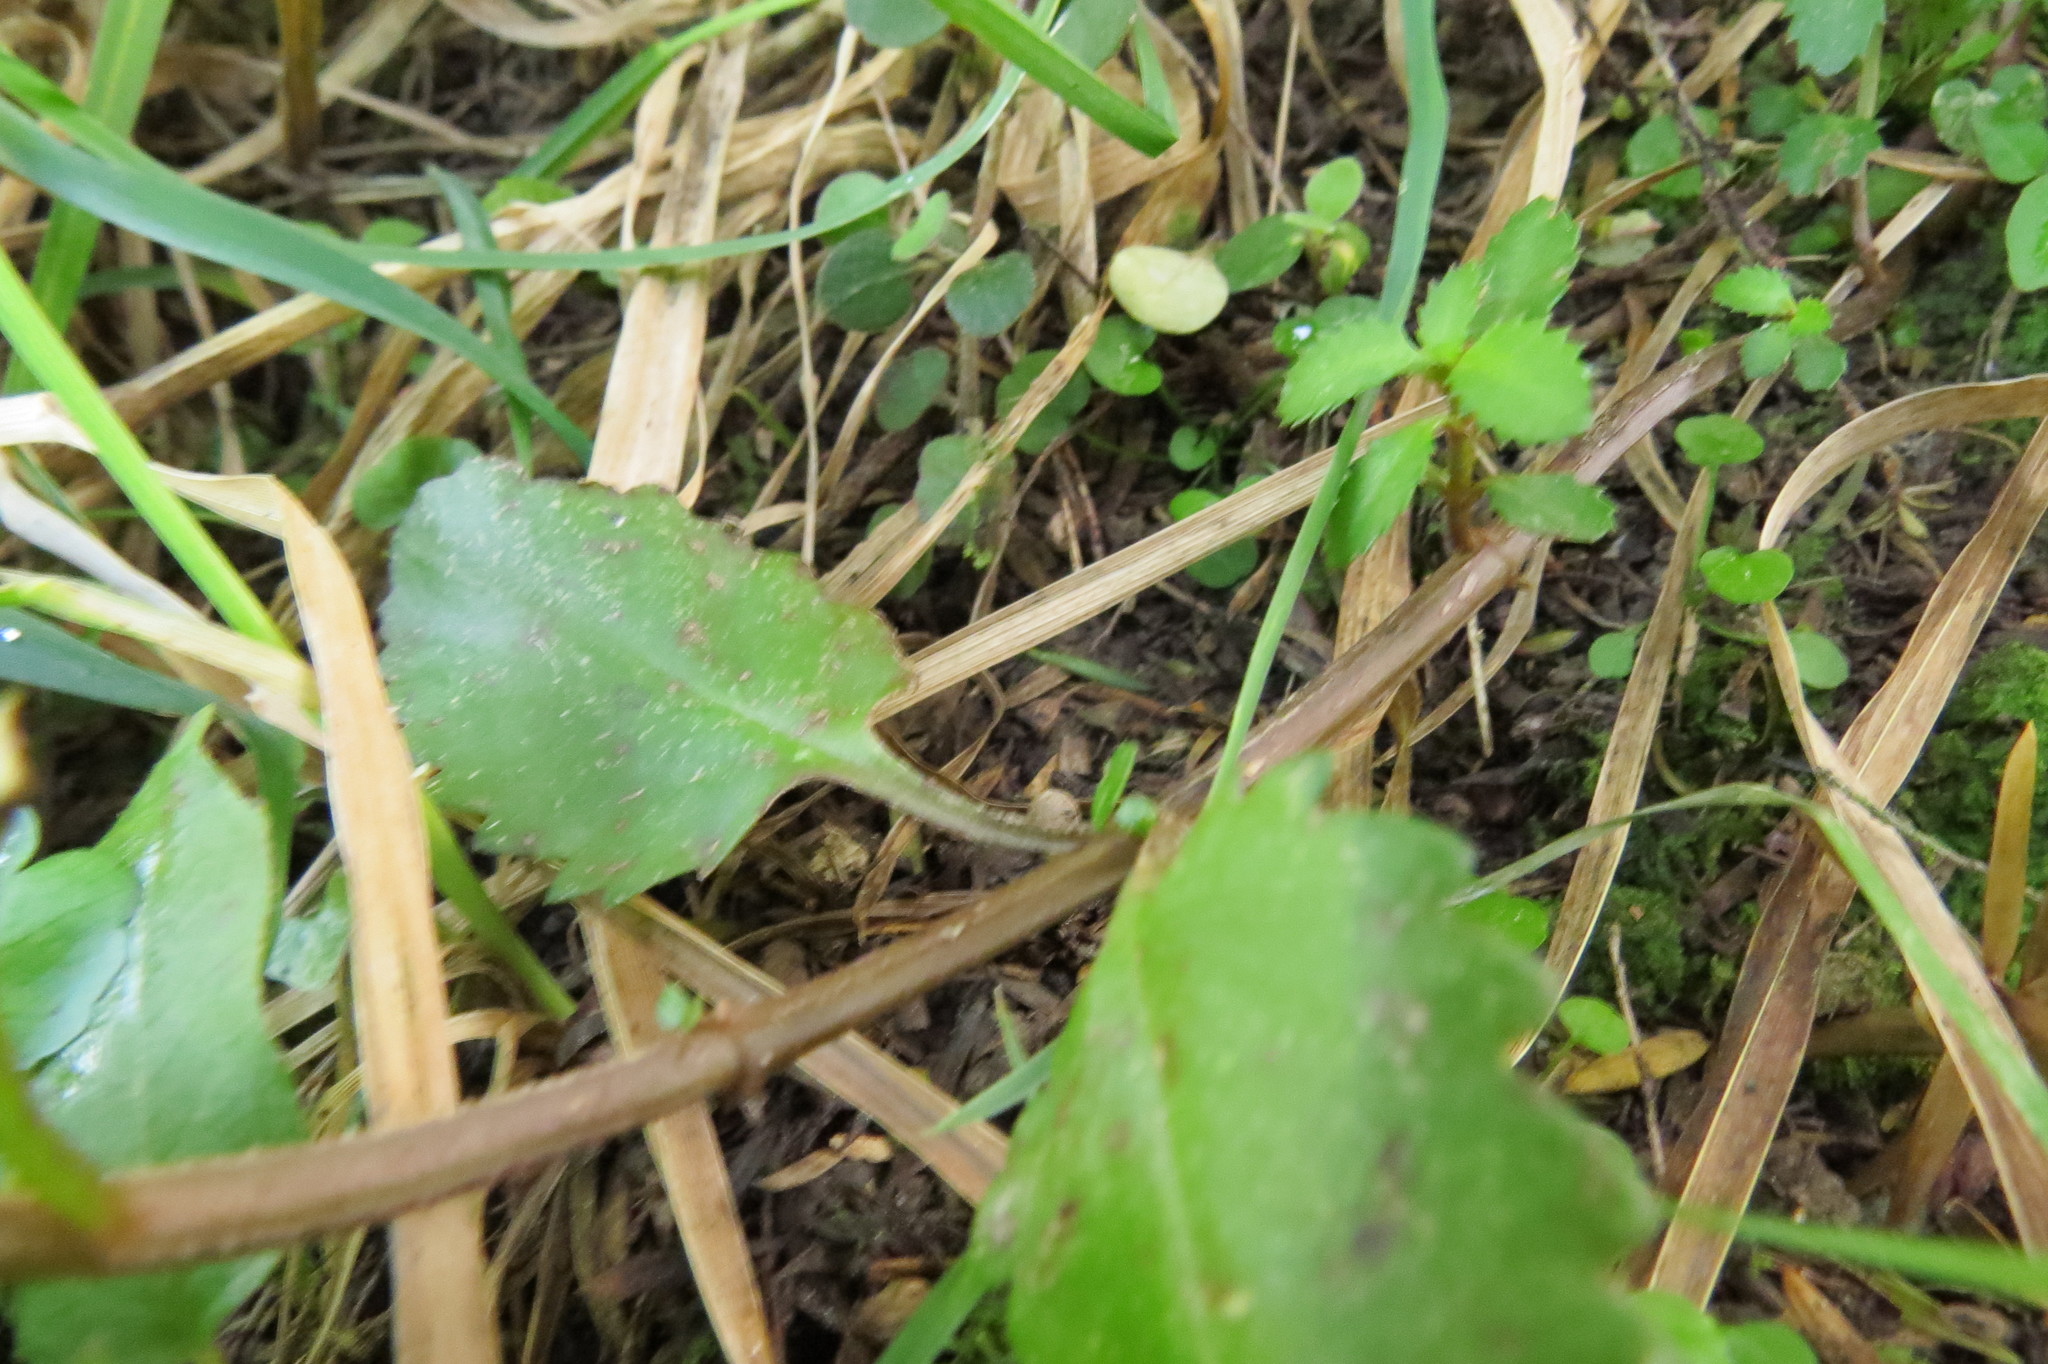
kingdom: Plantae
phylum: Tracheophyta
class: Magnoliopsida
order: Saxifragales
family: Haloragaceae
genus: Haloragis
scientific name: Haloragis erecta
